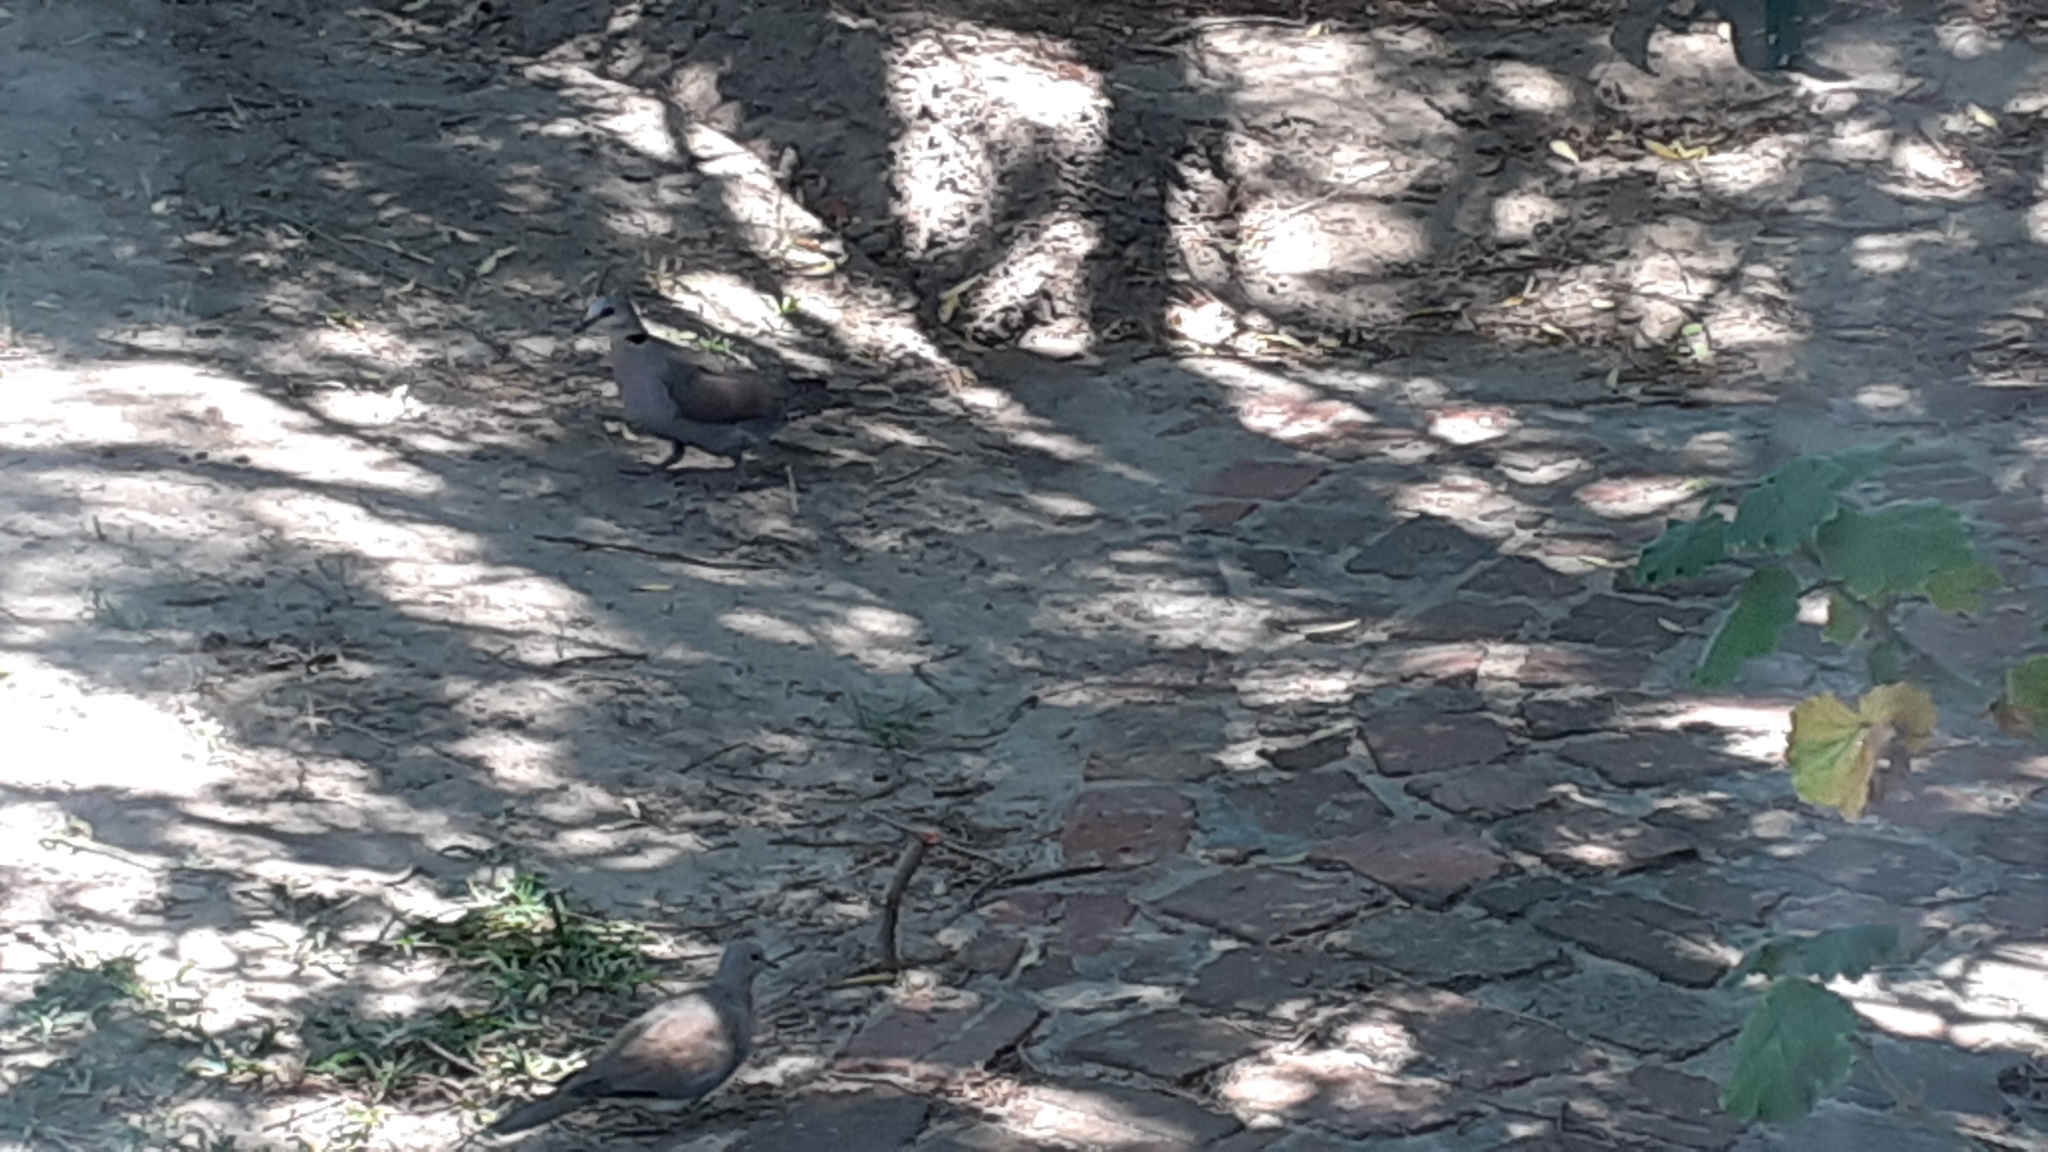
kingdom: Animalia
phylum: Chordata
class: Aves
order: Columbiformes
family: Columbidae
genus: Streptopelia
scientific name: Streptopelia semitorquata
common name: Red-eyed dove
